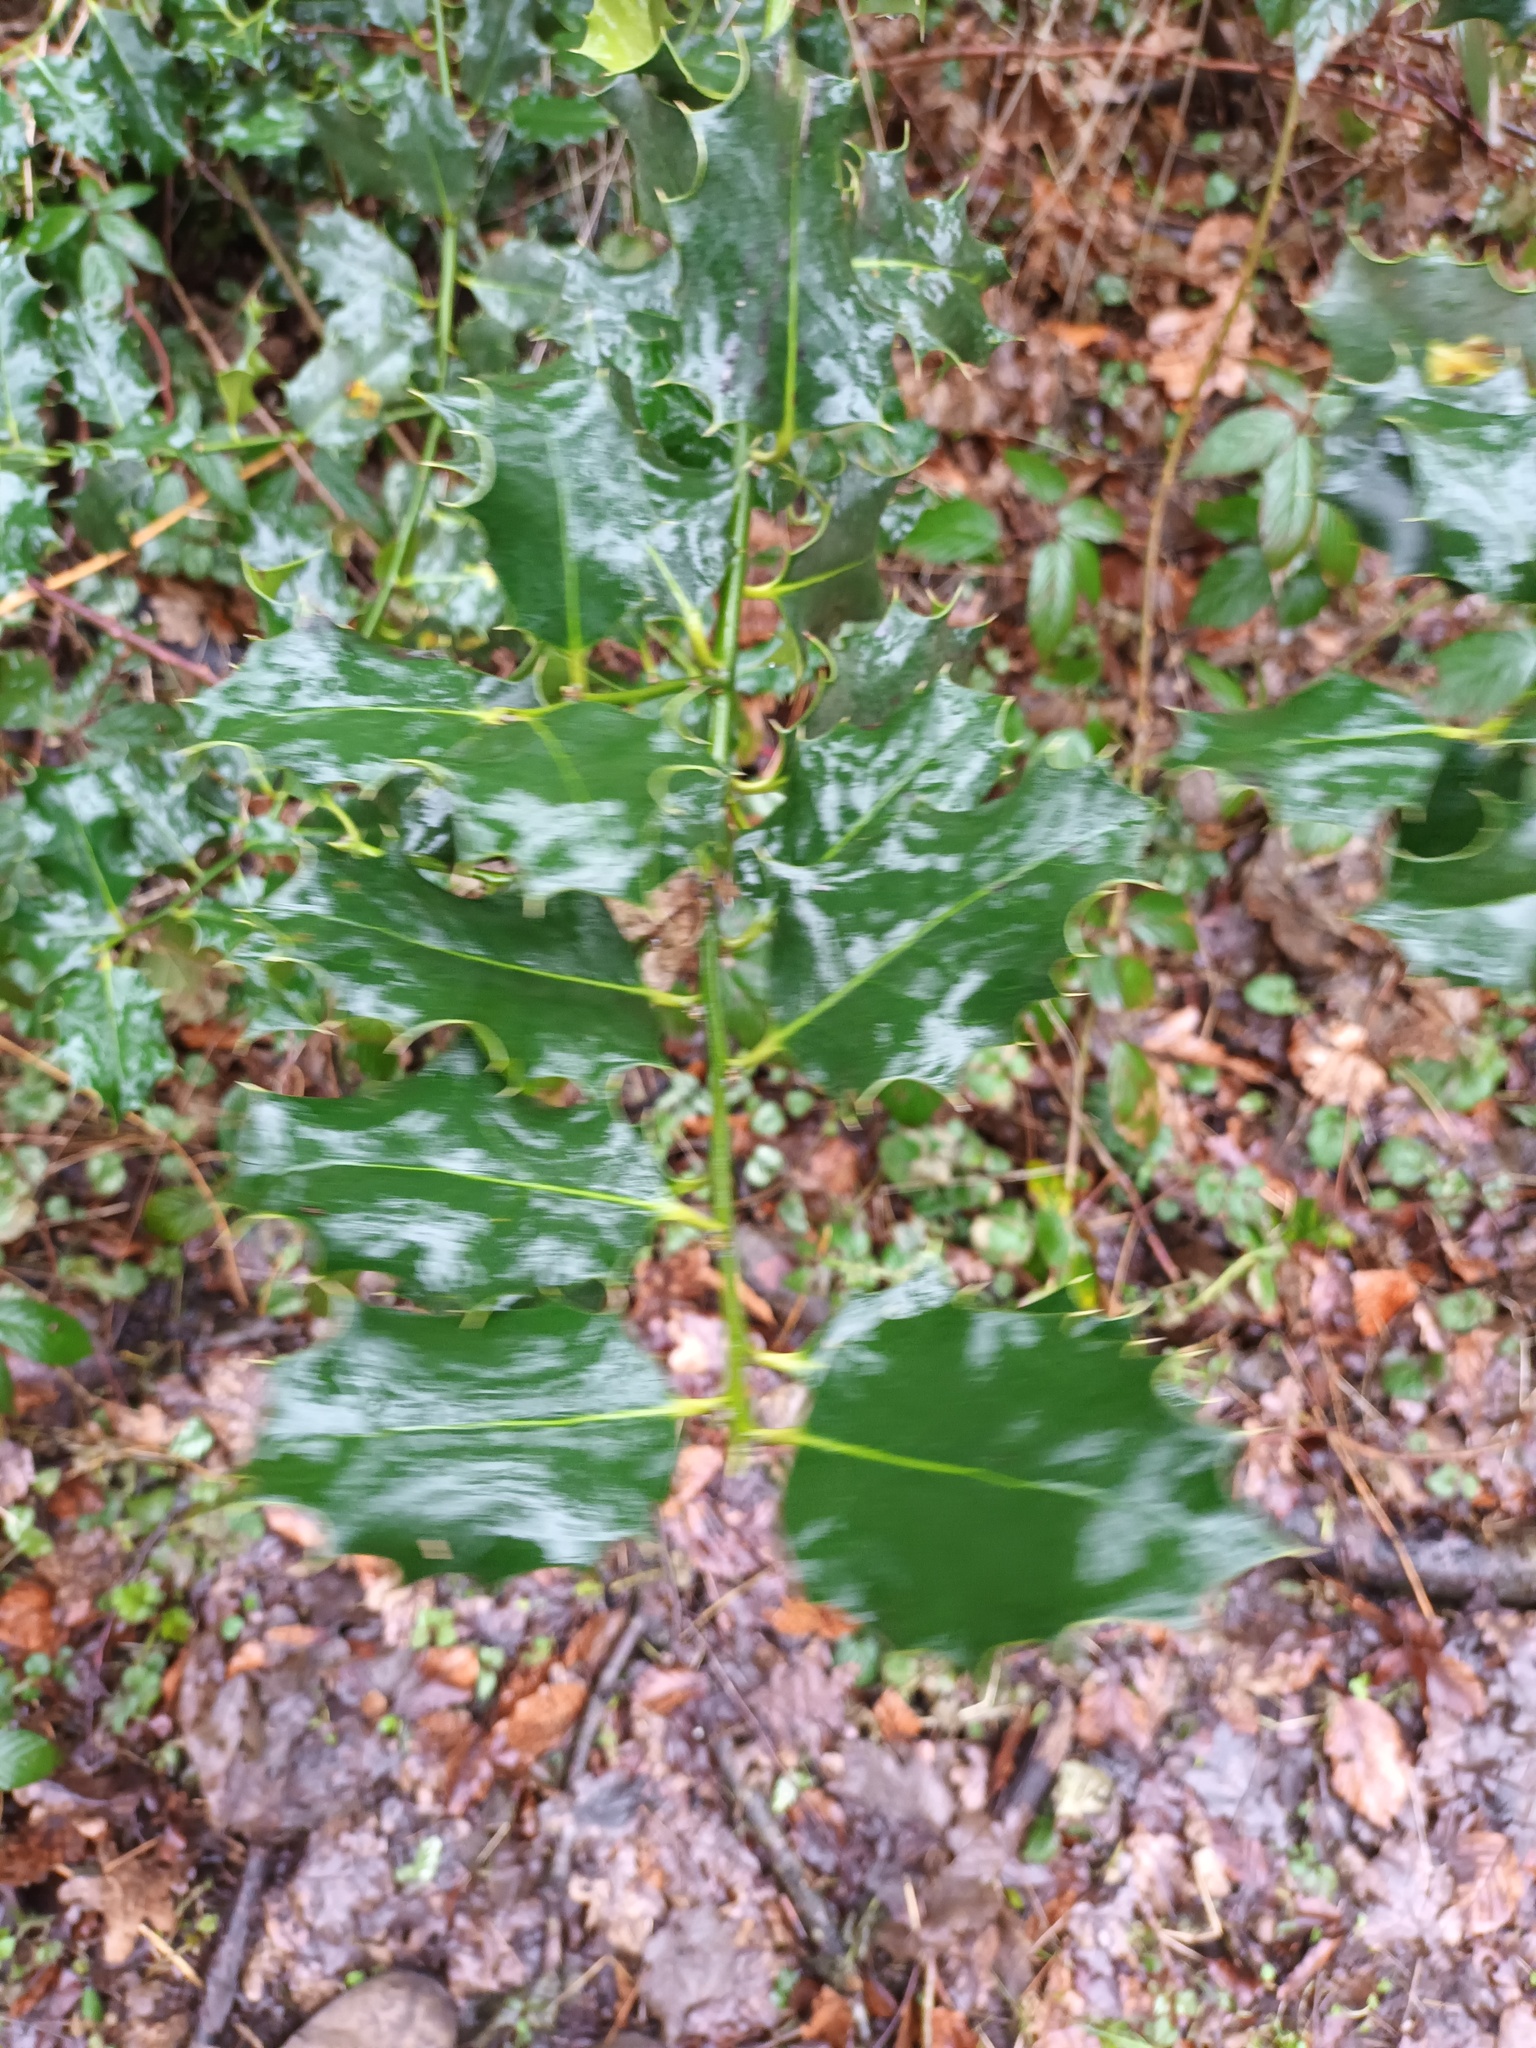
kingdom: Plantae
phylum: Tracheophyta
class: Magnoliopsida
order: Aquifoliales
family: Aquifoliaceae
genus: Ilex
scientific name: Ilex aquifolium
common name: English holly
